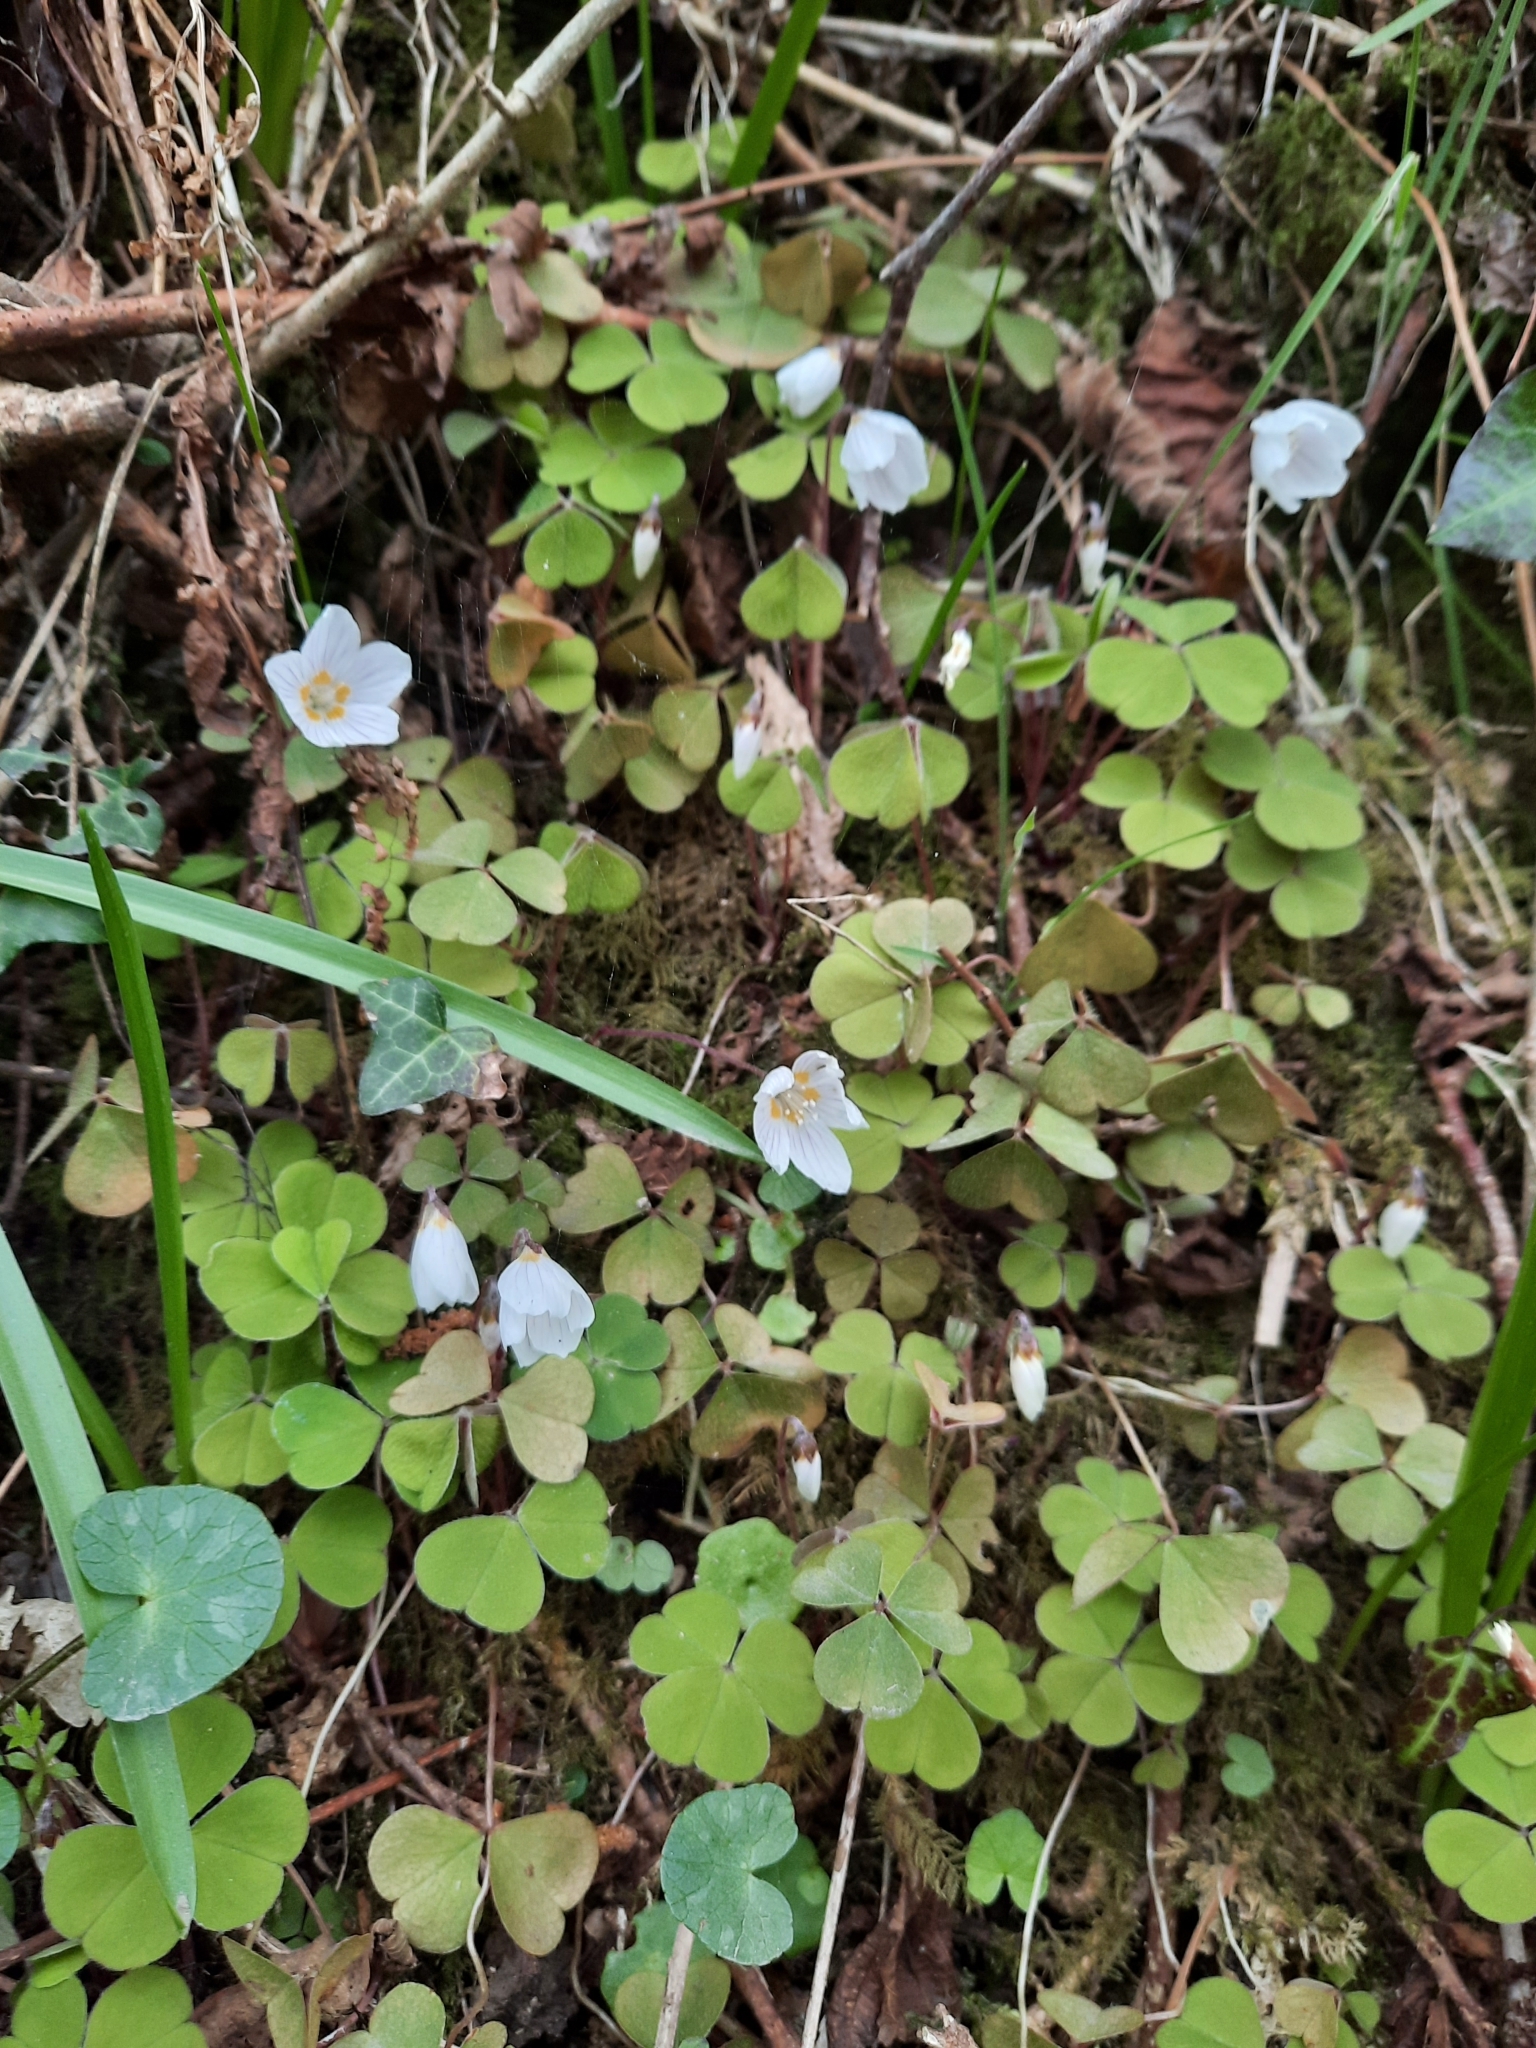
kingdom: Plantae
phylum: Tracheophyta
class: Magnoliopsida
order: Oxalidales
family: Oxalidaceae
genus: Oxalis
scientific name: Oxalis acetosella
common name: Wood-sorrel
